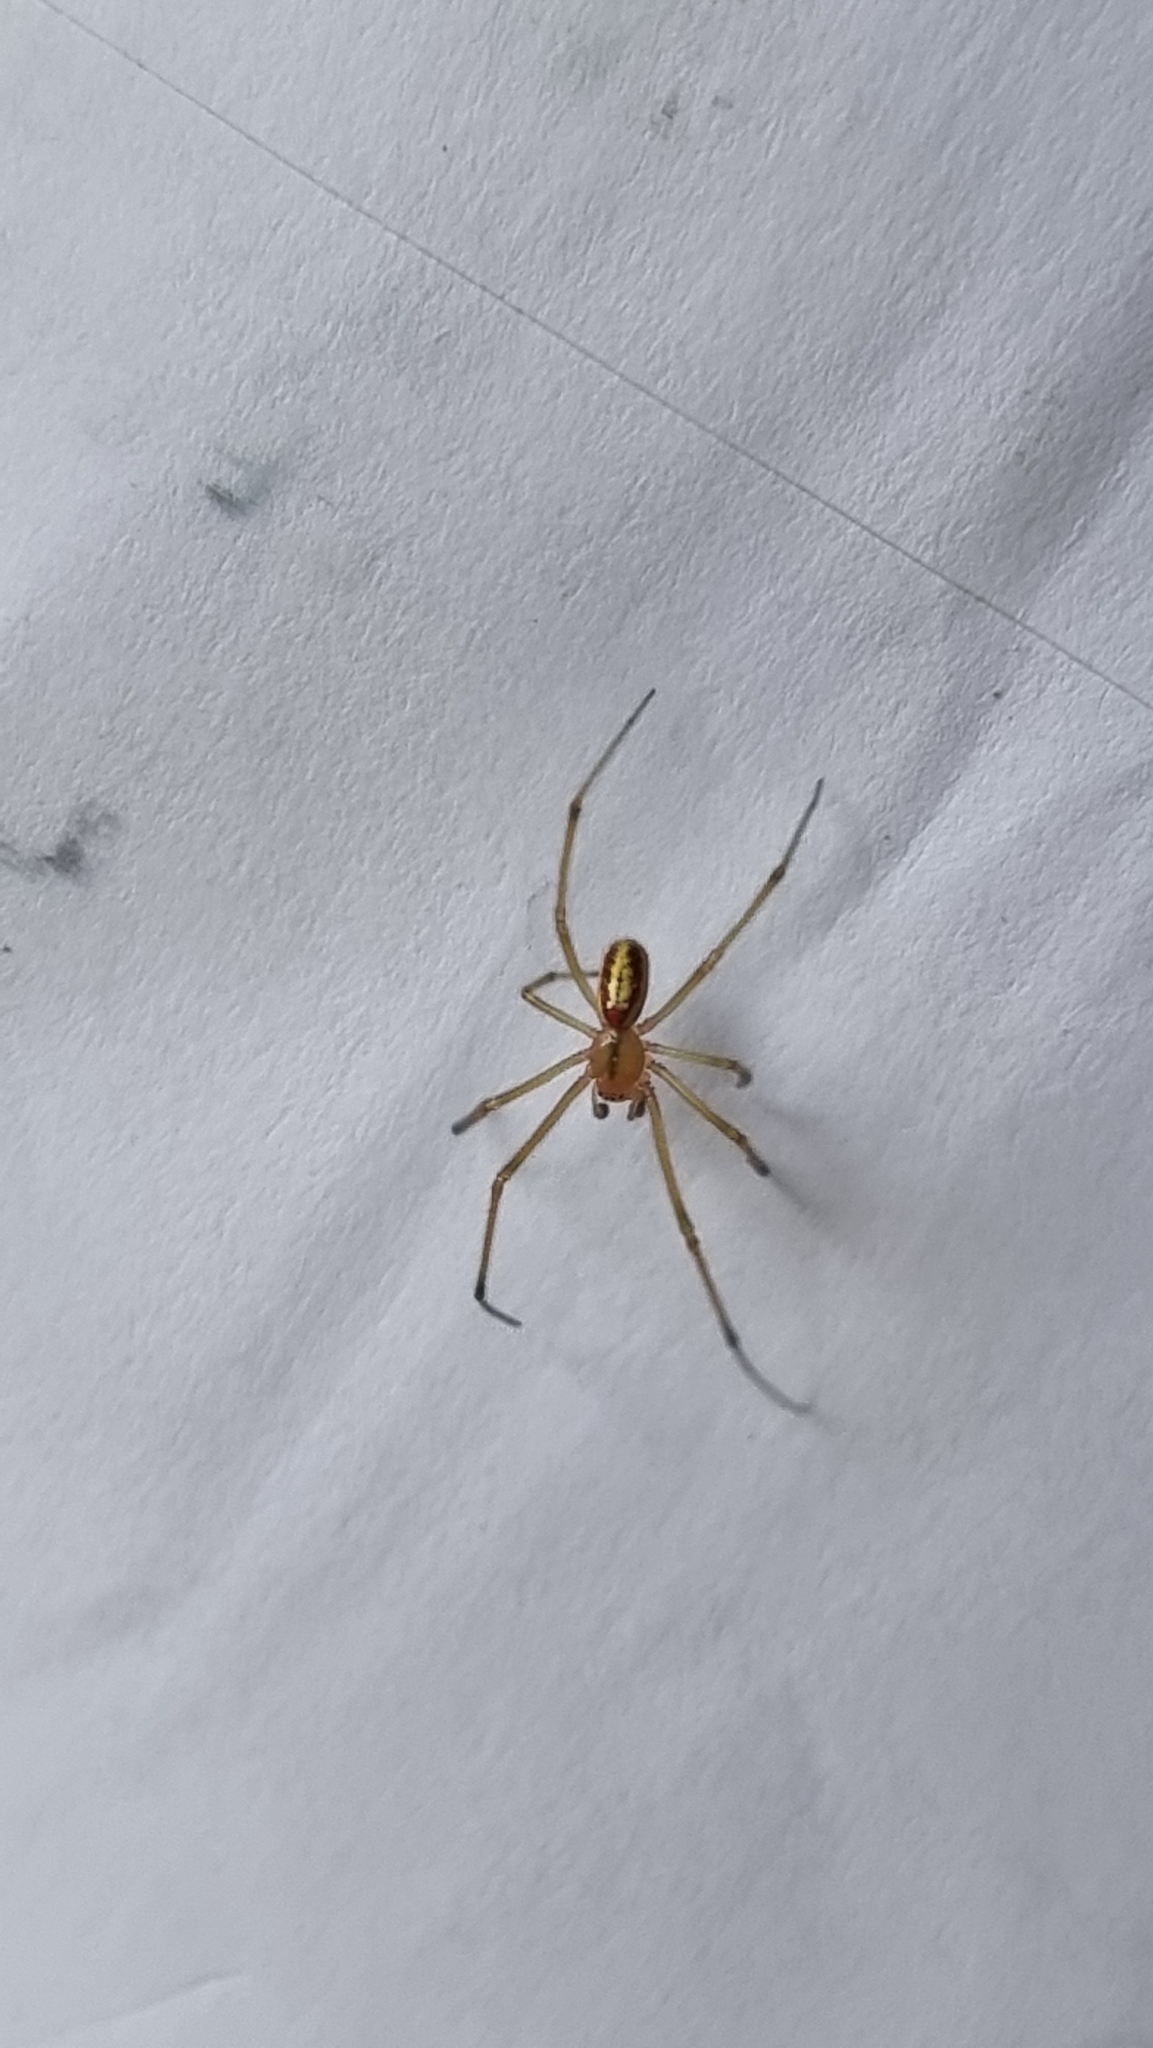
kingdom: Animalia
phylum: Arthropoda
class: Arachnida
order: Araneae
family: Theridiidae
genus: Enoplognatha
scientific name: Enoplognatha
